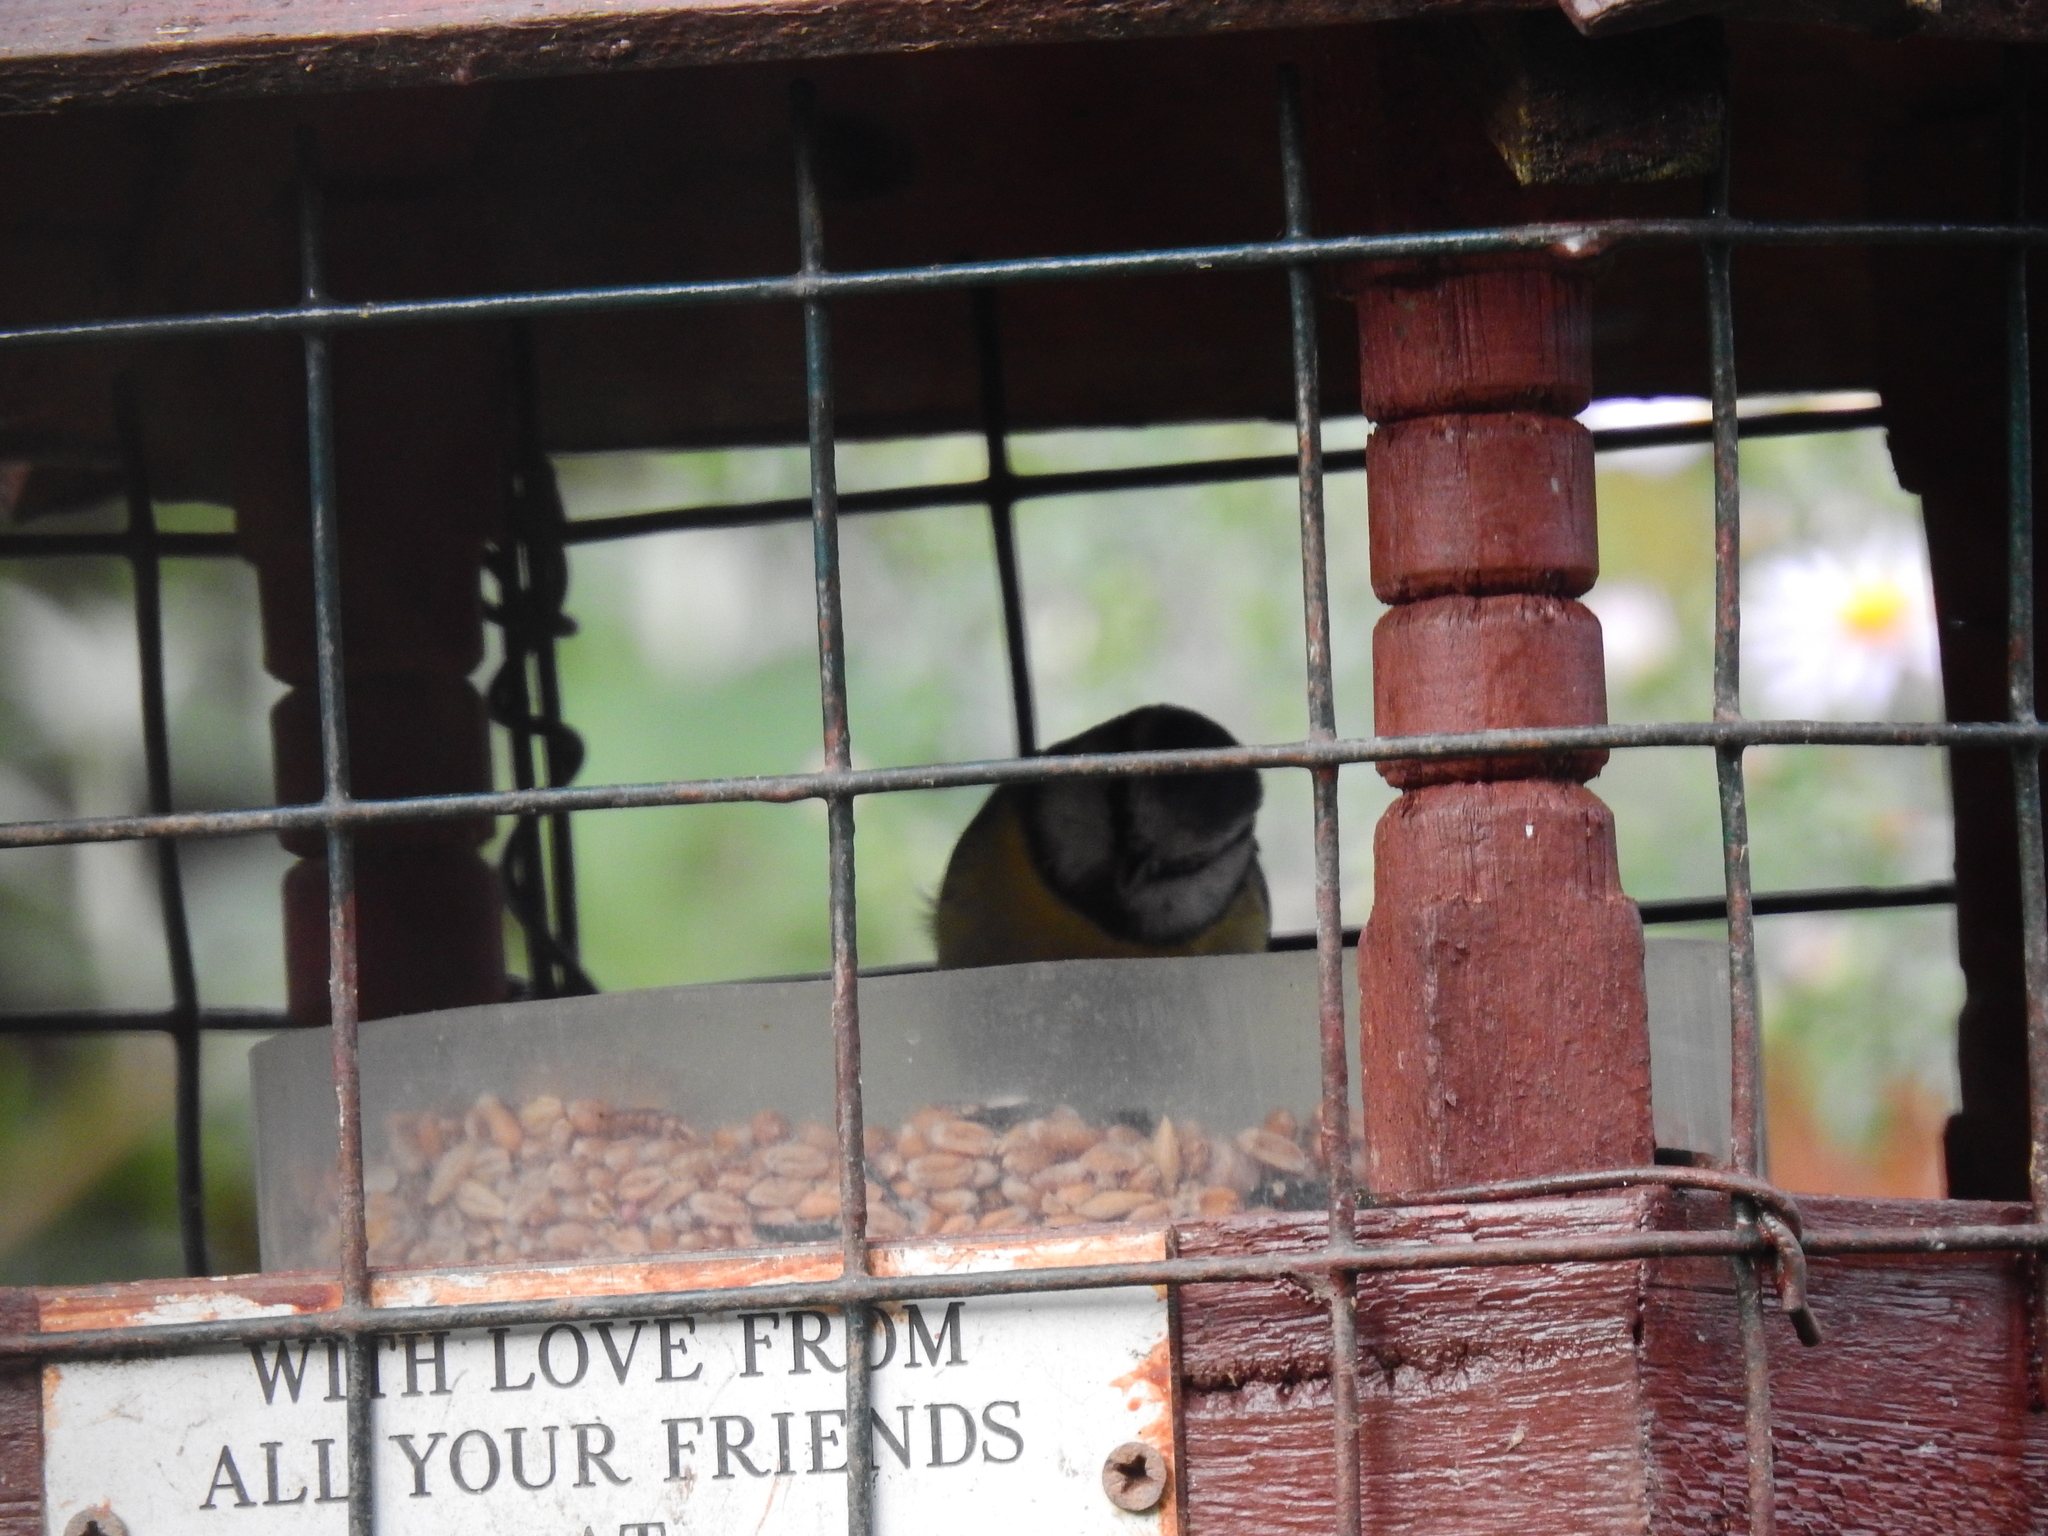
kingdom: Animalia
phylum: Chordata
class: Aves
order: Passeriformes
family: Paridae
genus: Cyanistes
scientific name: Cyanistes caeruleus
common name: Eurasian blue tit
